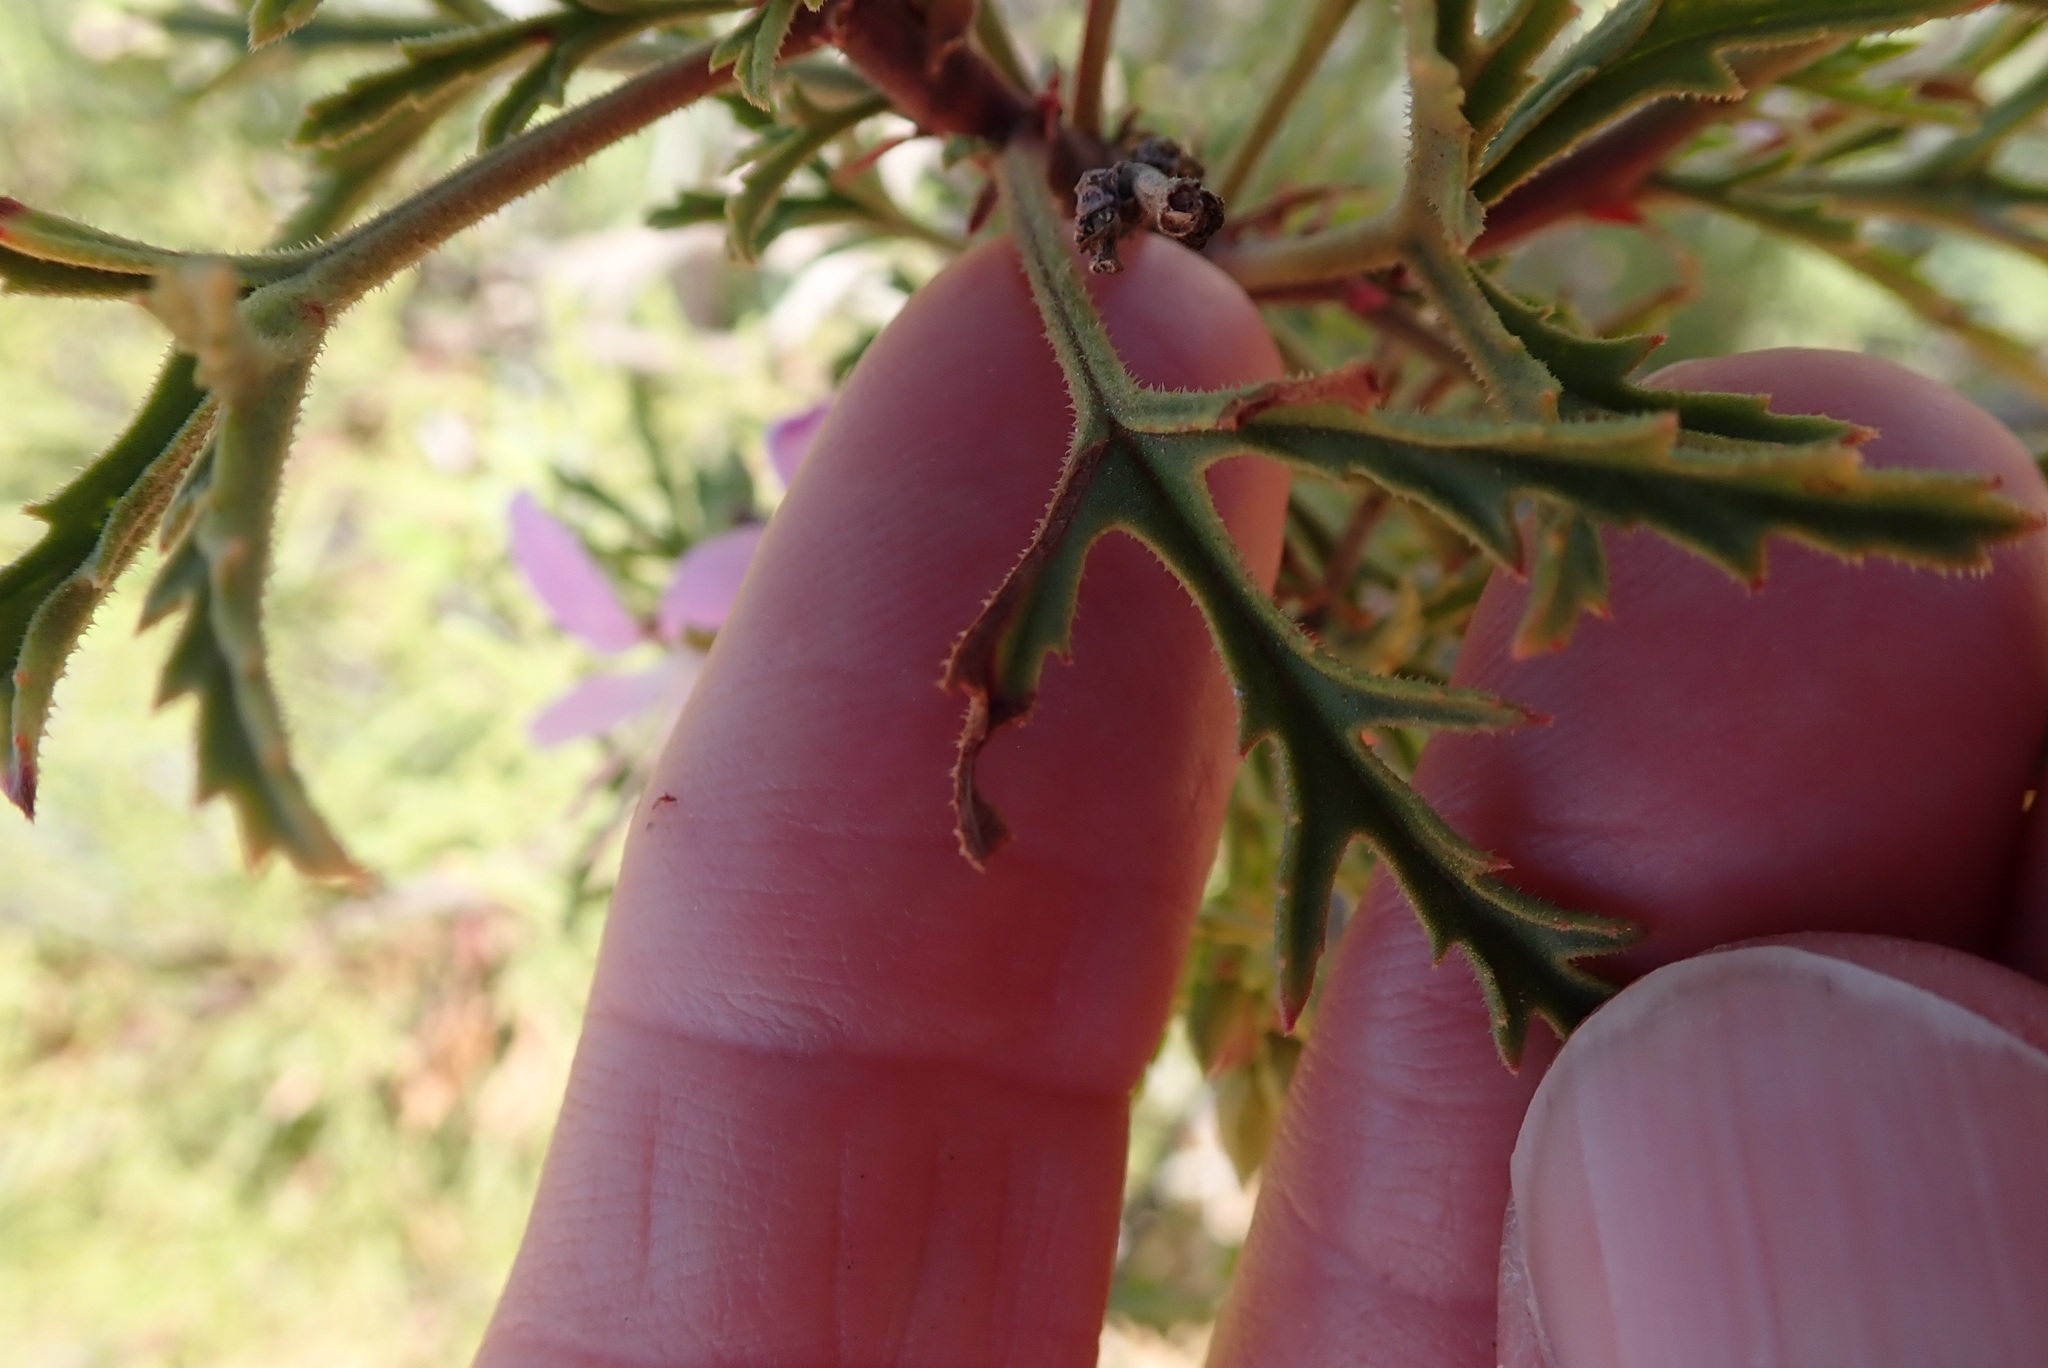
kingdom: Plantae
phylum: Tracheophyta
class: Magnoliopsida
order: Geraniales
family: Geraniaceae
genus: Pelargonium
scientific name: Pelargonium scabrum
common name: Apricot geranium
